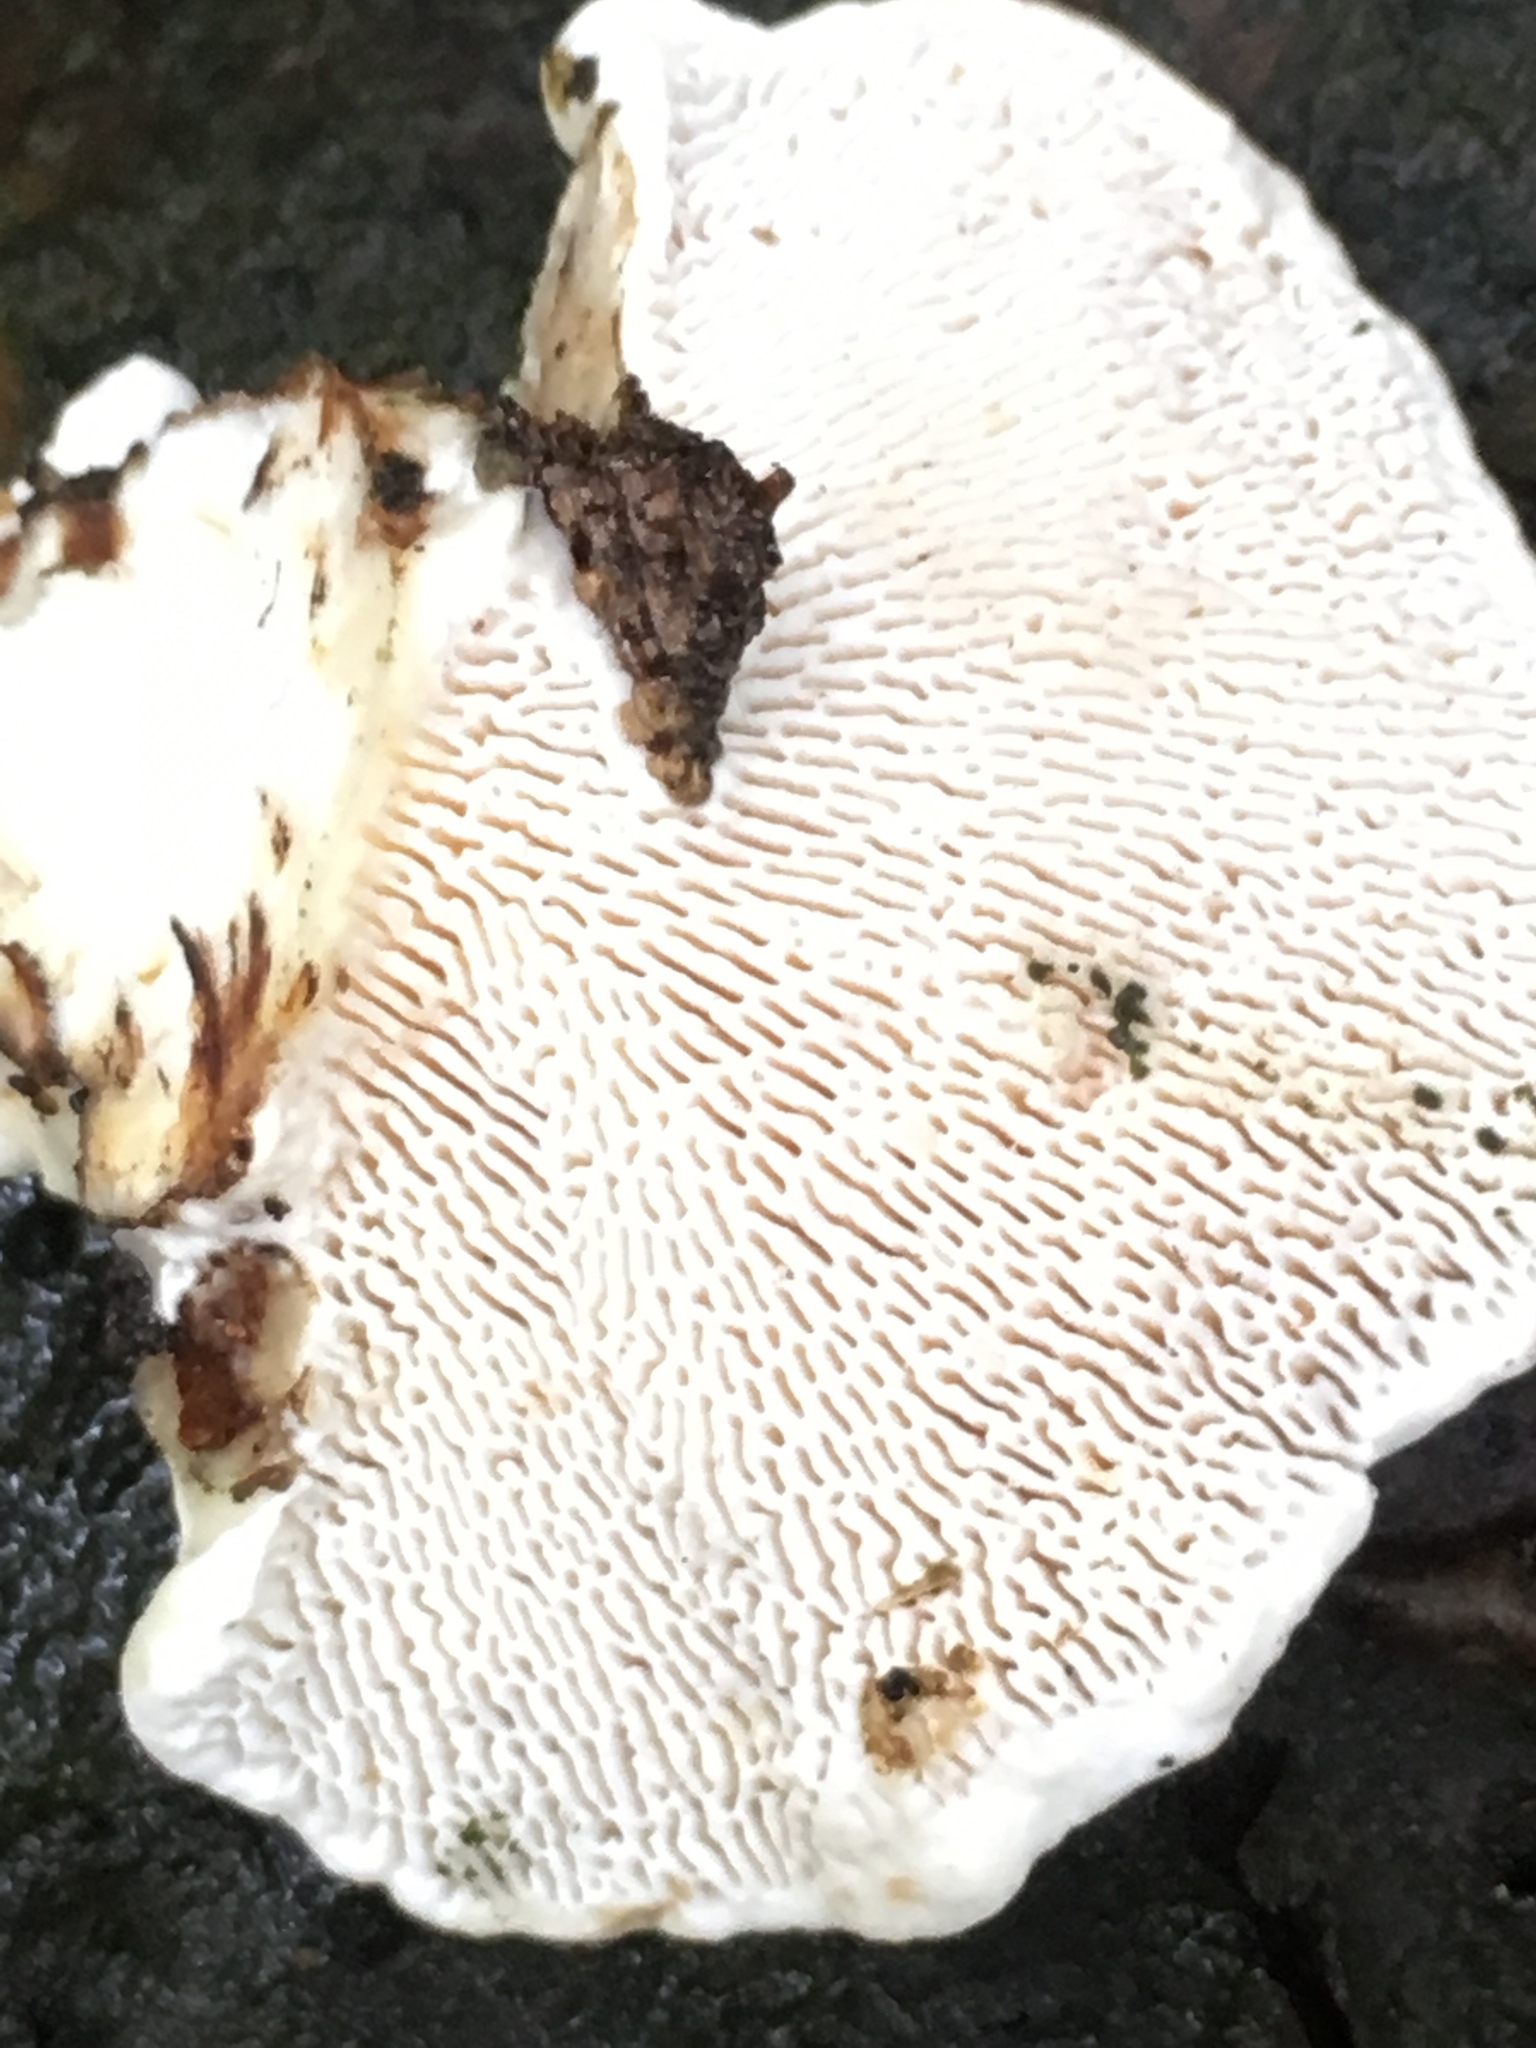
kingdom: Fungi
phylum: Basidiomycota
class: Agaricomycetes
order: Polyporales
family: Polyporaceae
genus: Trametes
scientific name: Trametes gibbosa
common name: Lumpy bracket
